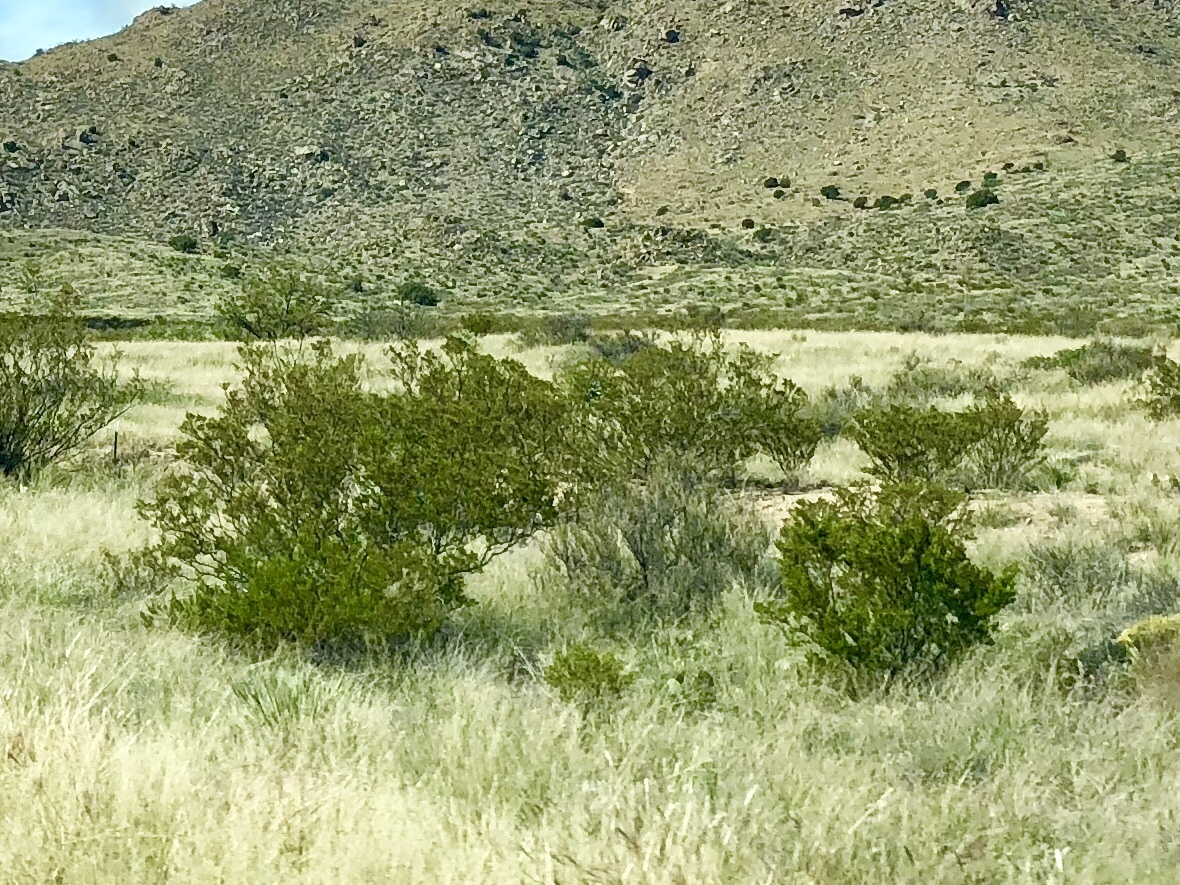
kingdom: Plantae
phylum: Tracheophyta
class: Magnoliopsida
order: Zygophyllales
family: Zygophyllaceae
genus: Larrea
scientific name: Larrea tridentata
